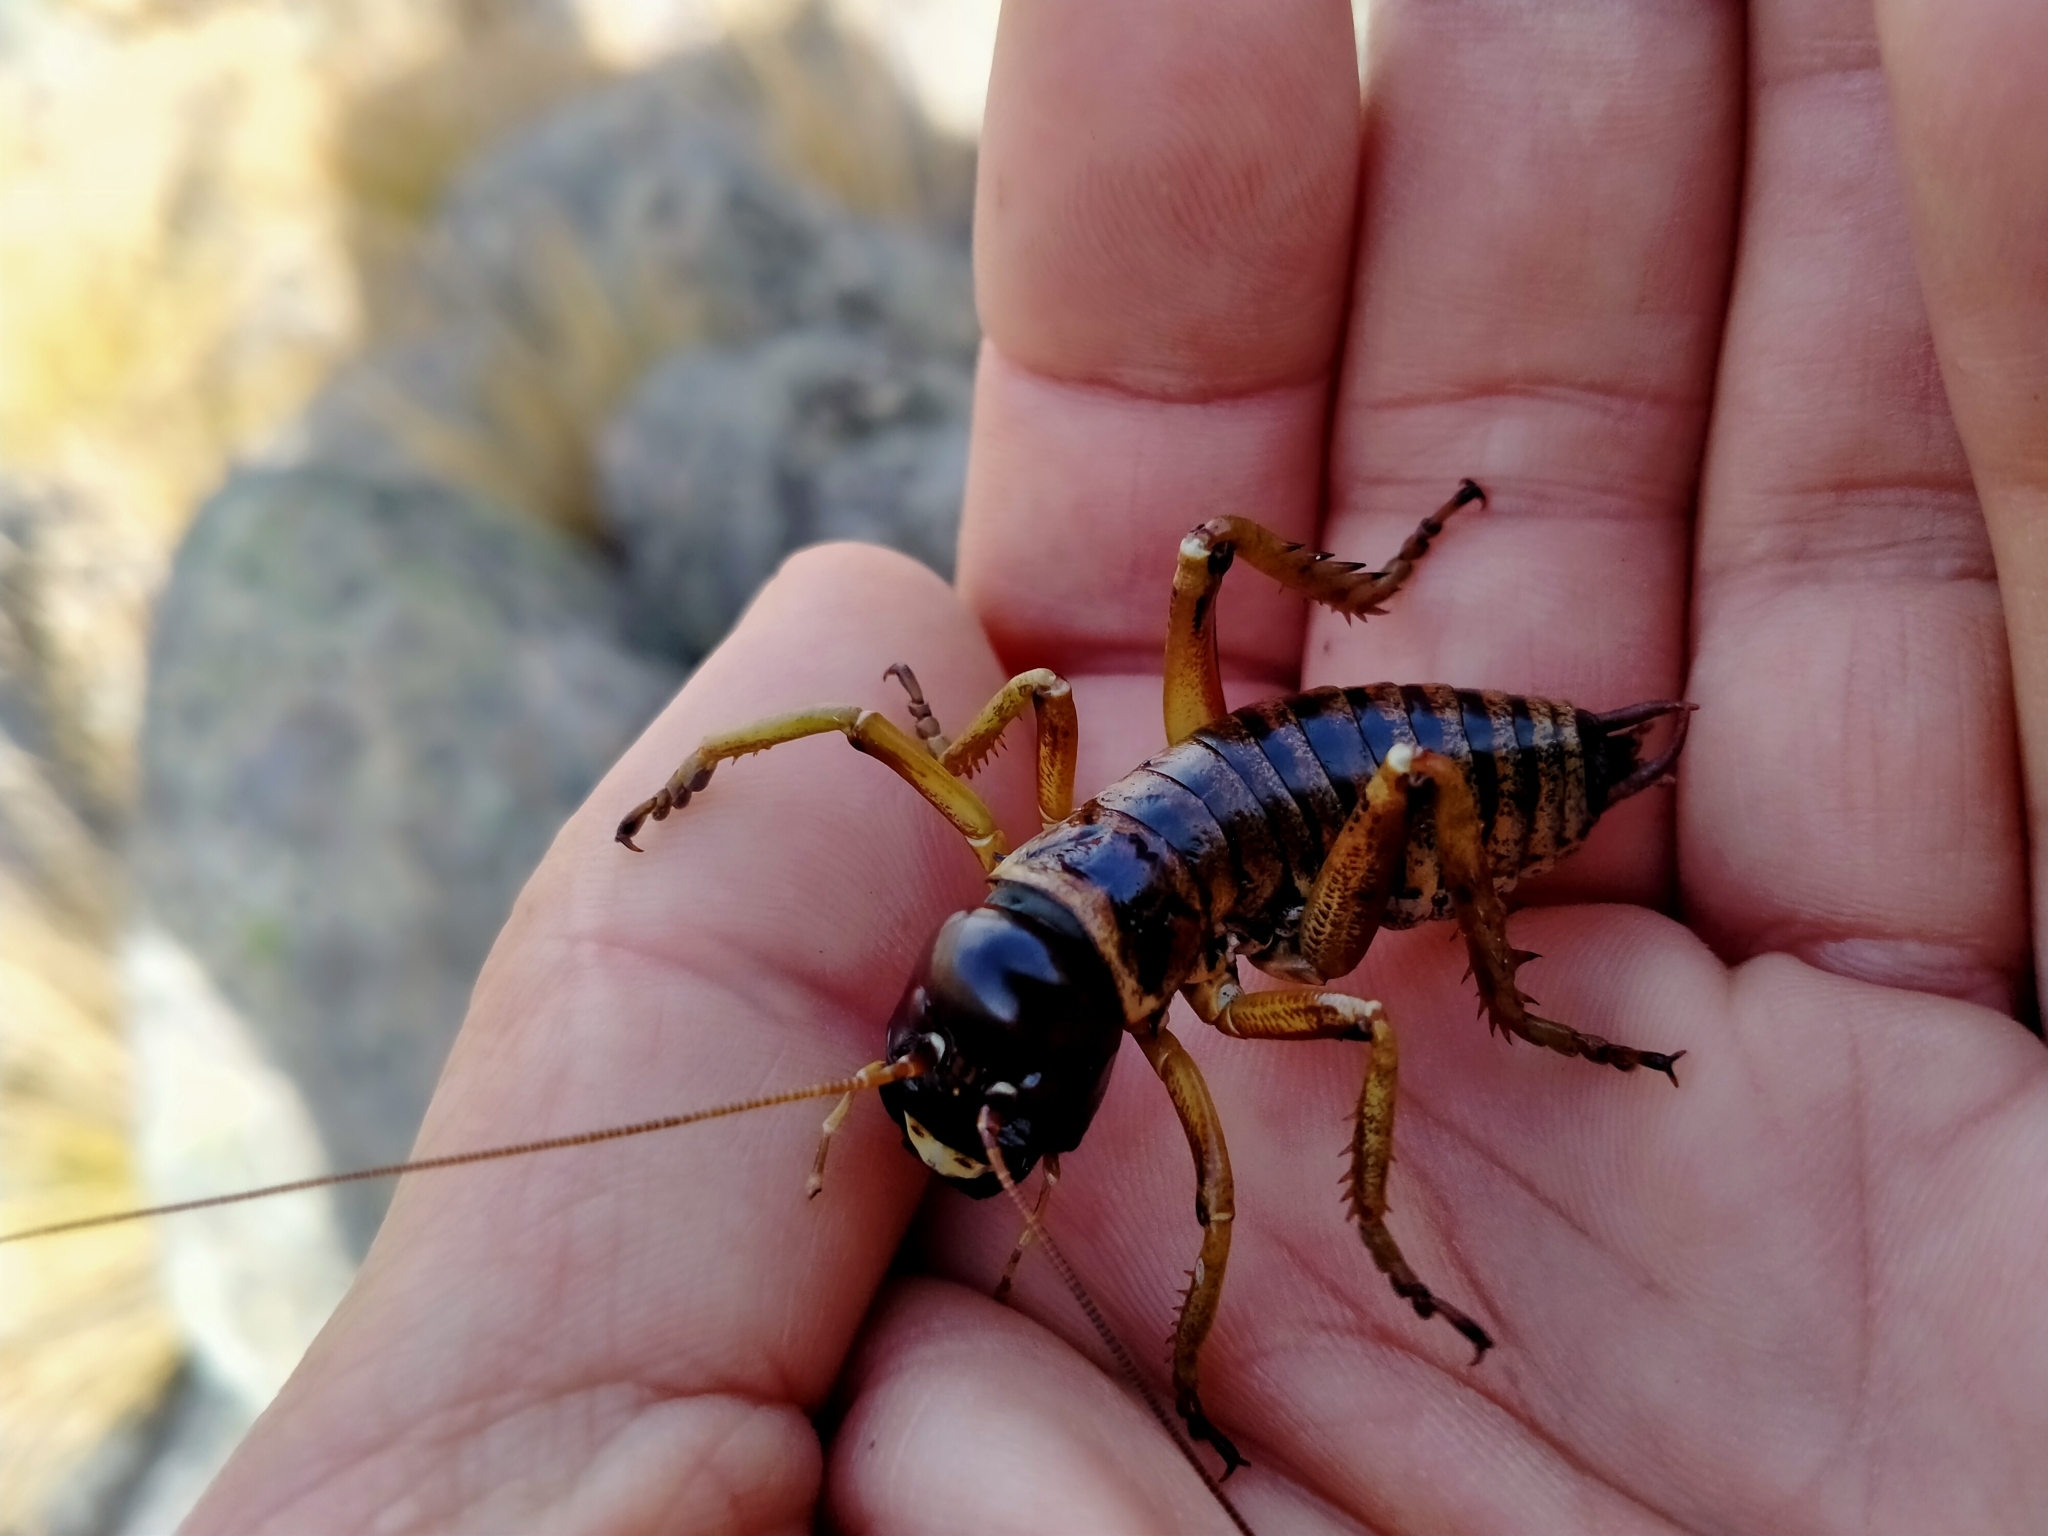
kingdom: Animalia
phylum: Arthropoda
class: Insecta
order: Orthoptera
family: Anostostomatidae
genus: Hemideina
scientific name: Hemideina maori
